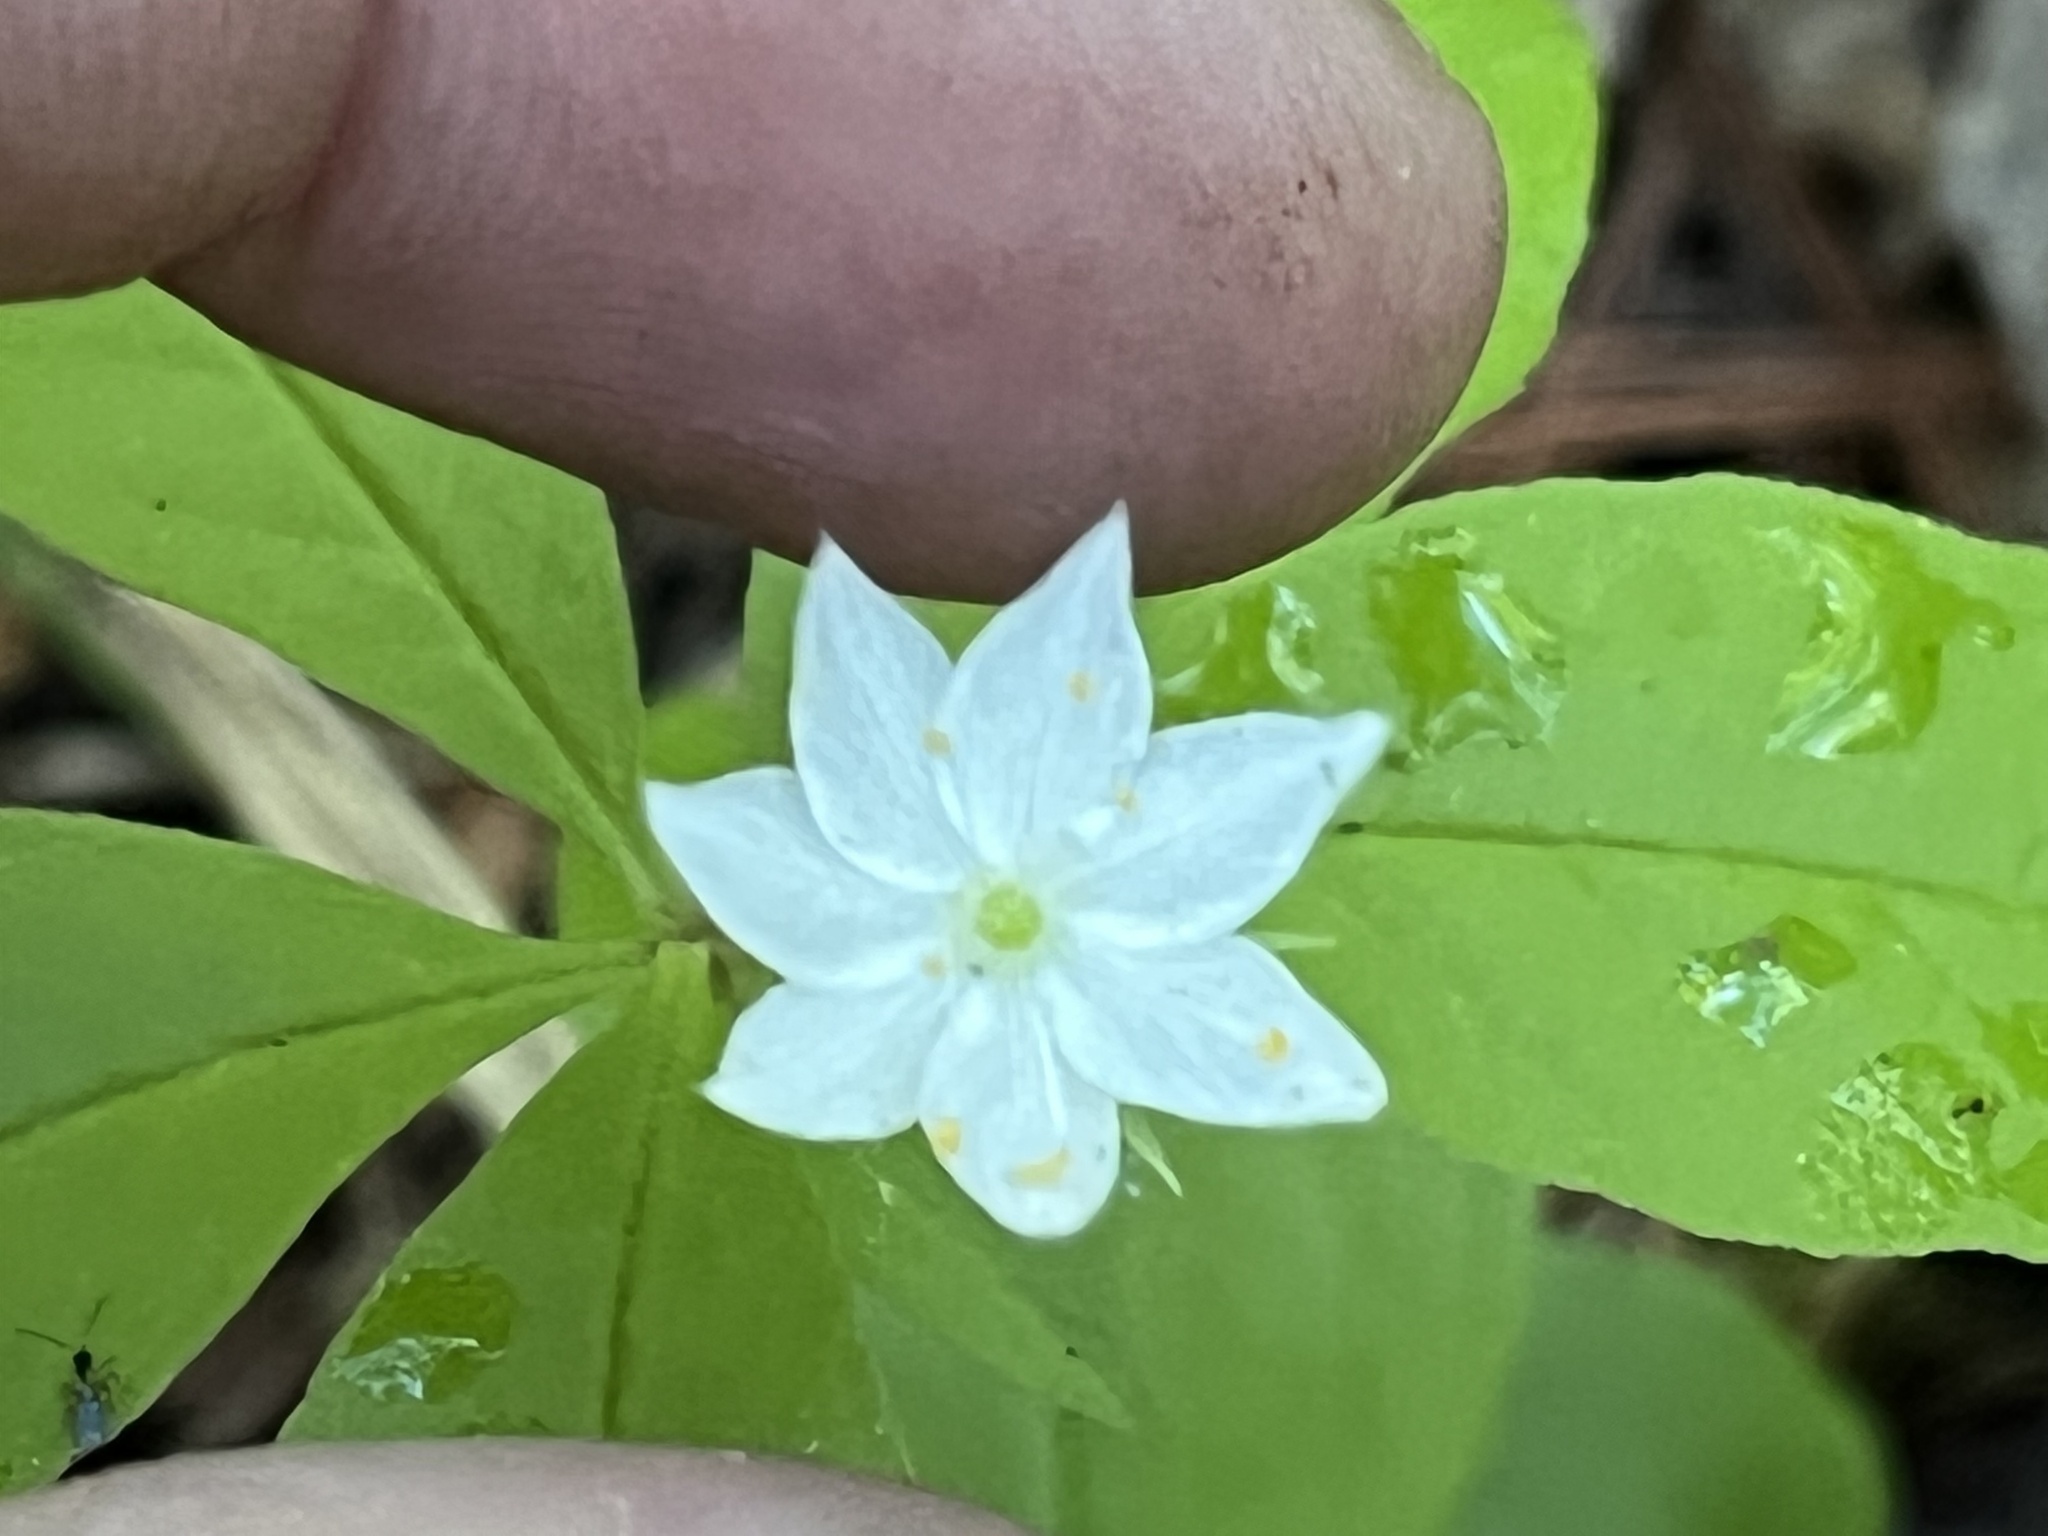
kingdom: Plantae
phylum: Tracheophyta
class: Magnoliopsida
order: Ericales
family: Primulaceae
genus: Lysimachia
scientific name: Lysimachia borealis
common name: American starflower
